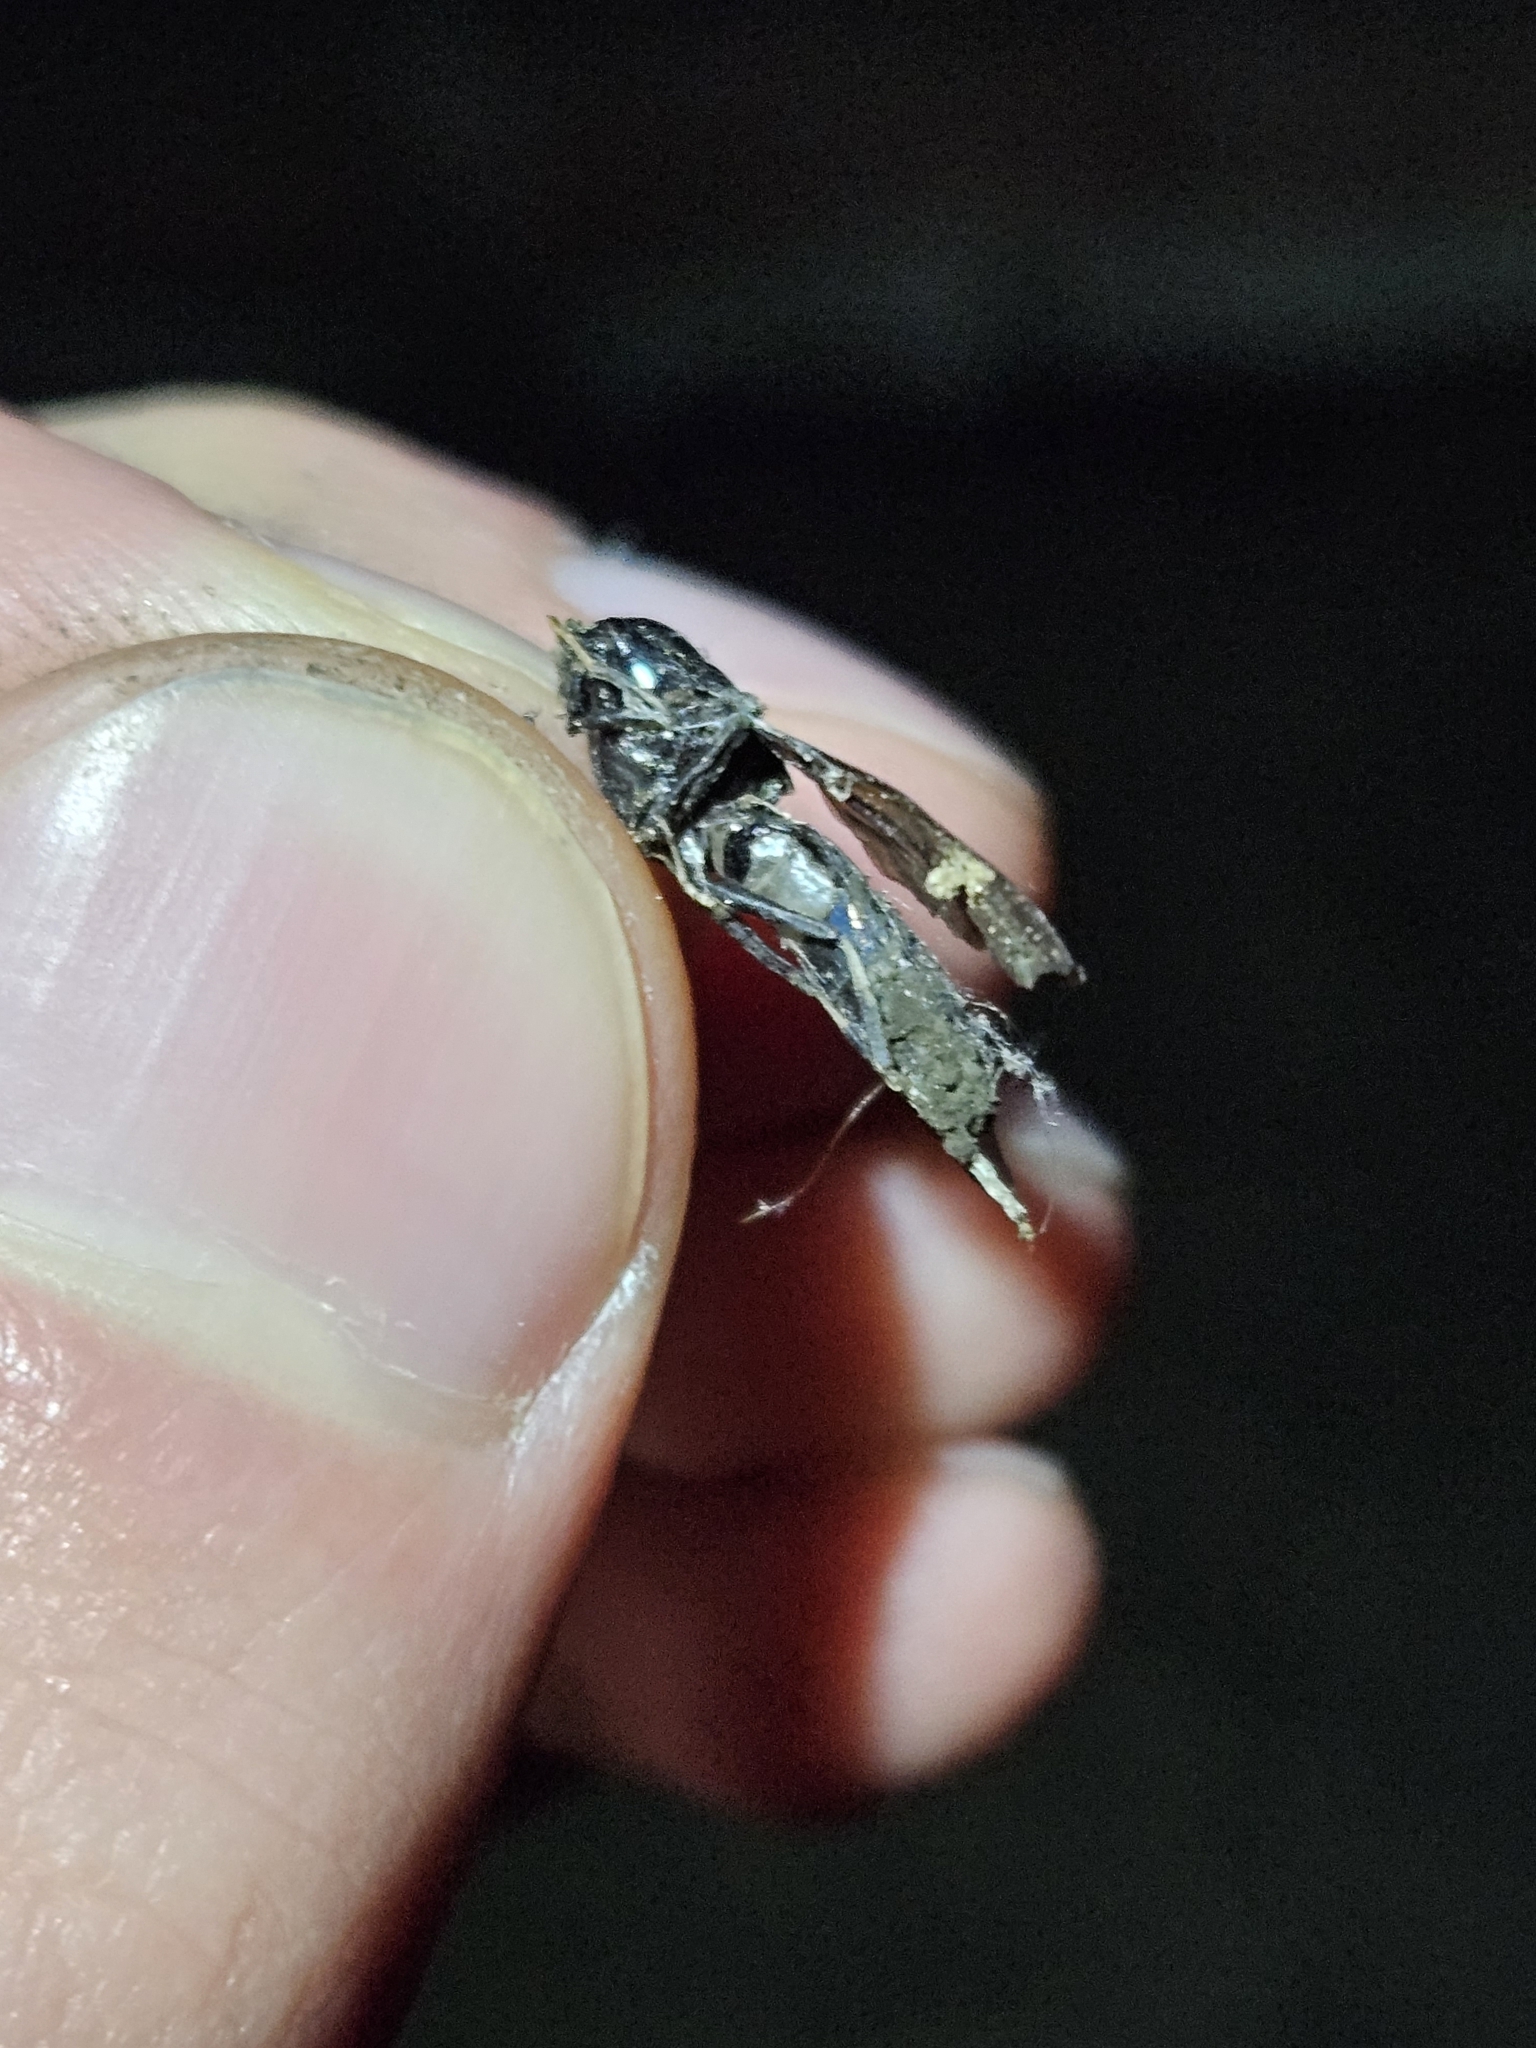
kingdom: Animalia
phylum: Arthropoda
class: Insecta
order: Diptera
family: Stratiomyidae
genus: Hermetia
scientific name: Hermetia illucens
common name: Black soldier fly
